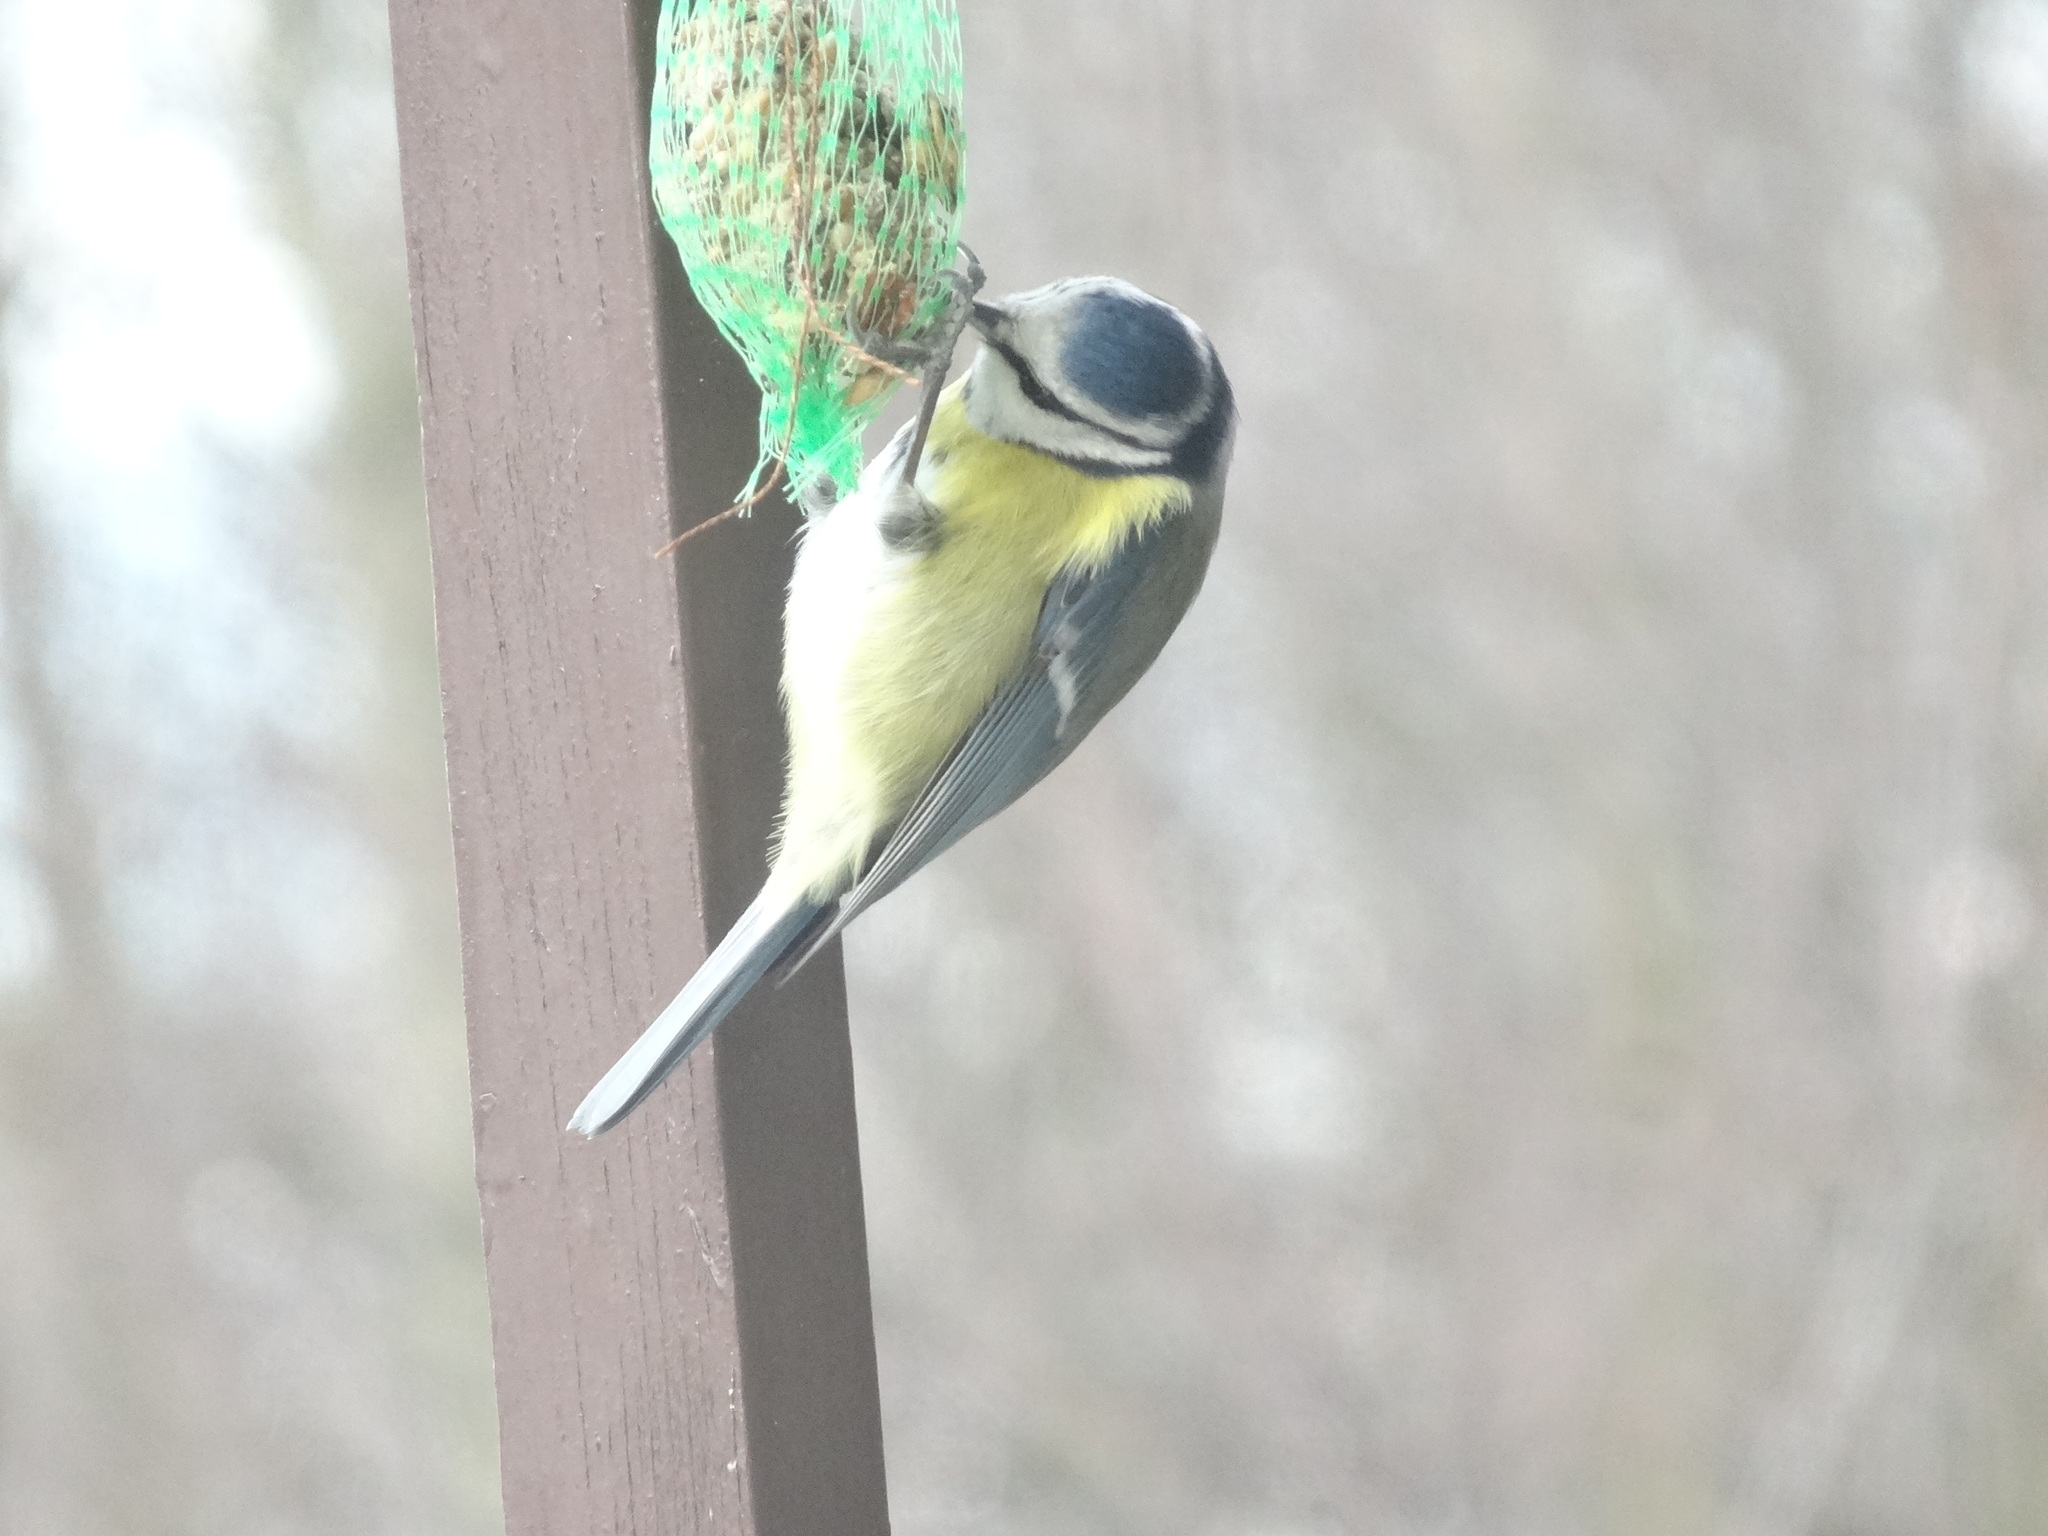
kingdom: Animalia
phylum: Chordata
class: Aves
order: Passeriformes
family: Paridae
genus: Cyanistes
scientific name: Cyanistes caeruleus
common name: Eurasian blue tit
